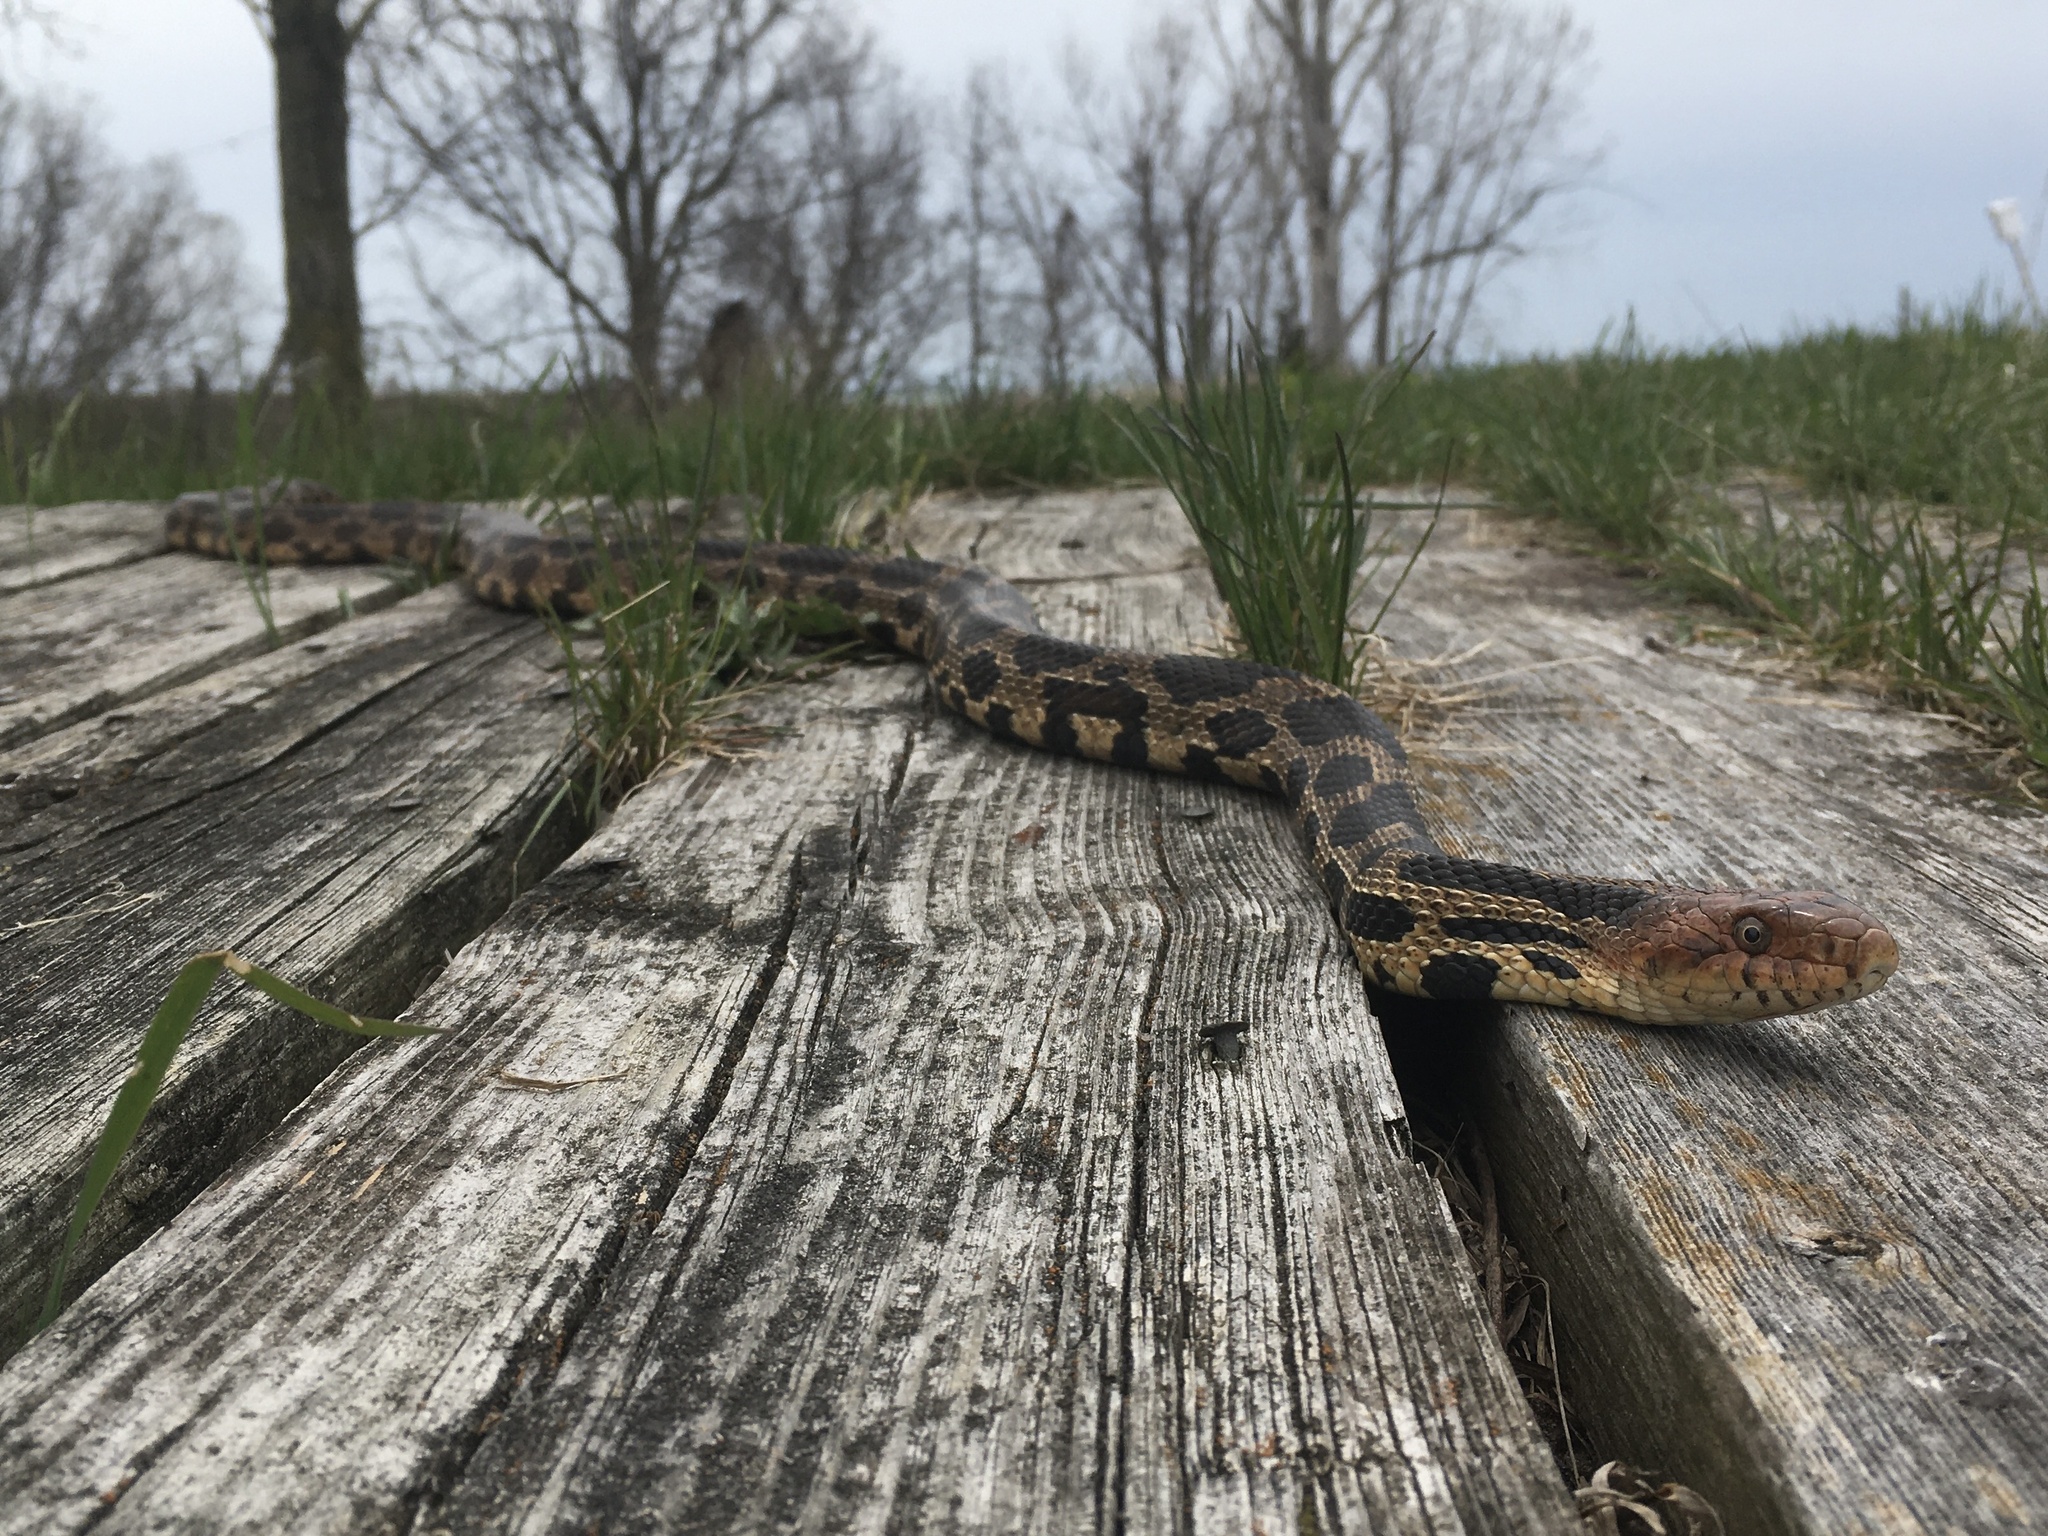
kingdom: Animalia
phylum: Chordata
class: Squamata
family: Colubridae
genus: Pantherophis
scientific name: Pantherophis vulpinus
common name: Eastern fox snake
